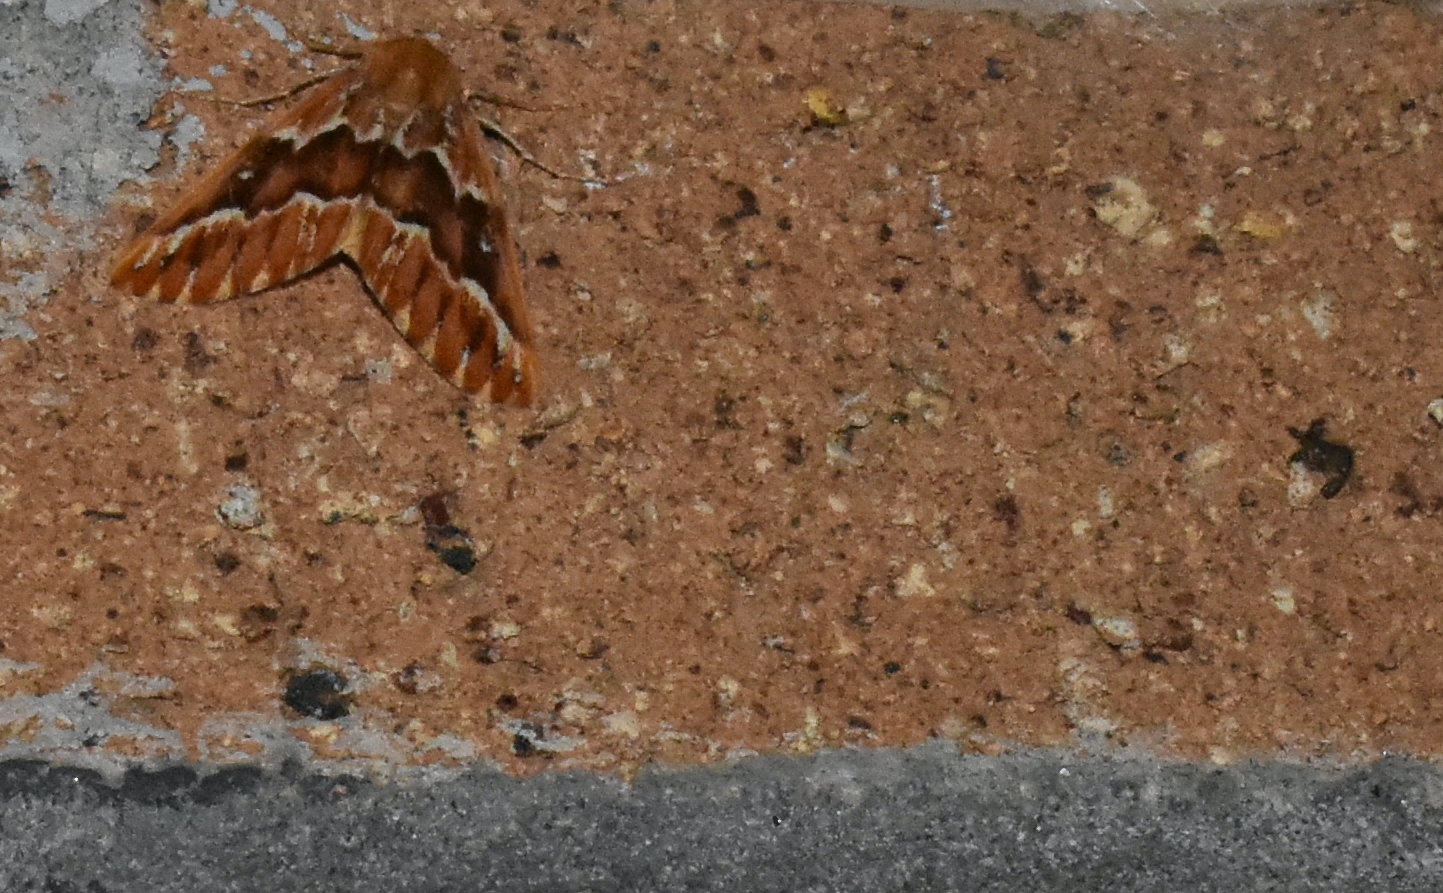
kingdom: Animalia
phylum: Arthropoda
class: Insecta
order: Lepidoptera
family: Geometridae
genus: Caripeta
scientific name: Caripeta aequaliaria
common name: Red girdle moth
